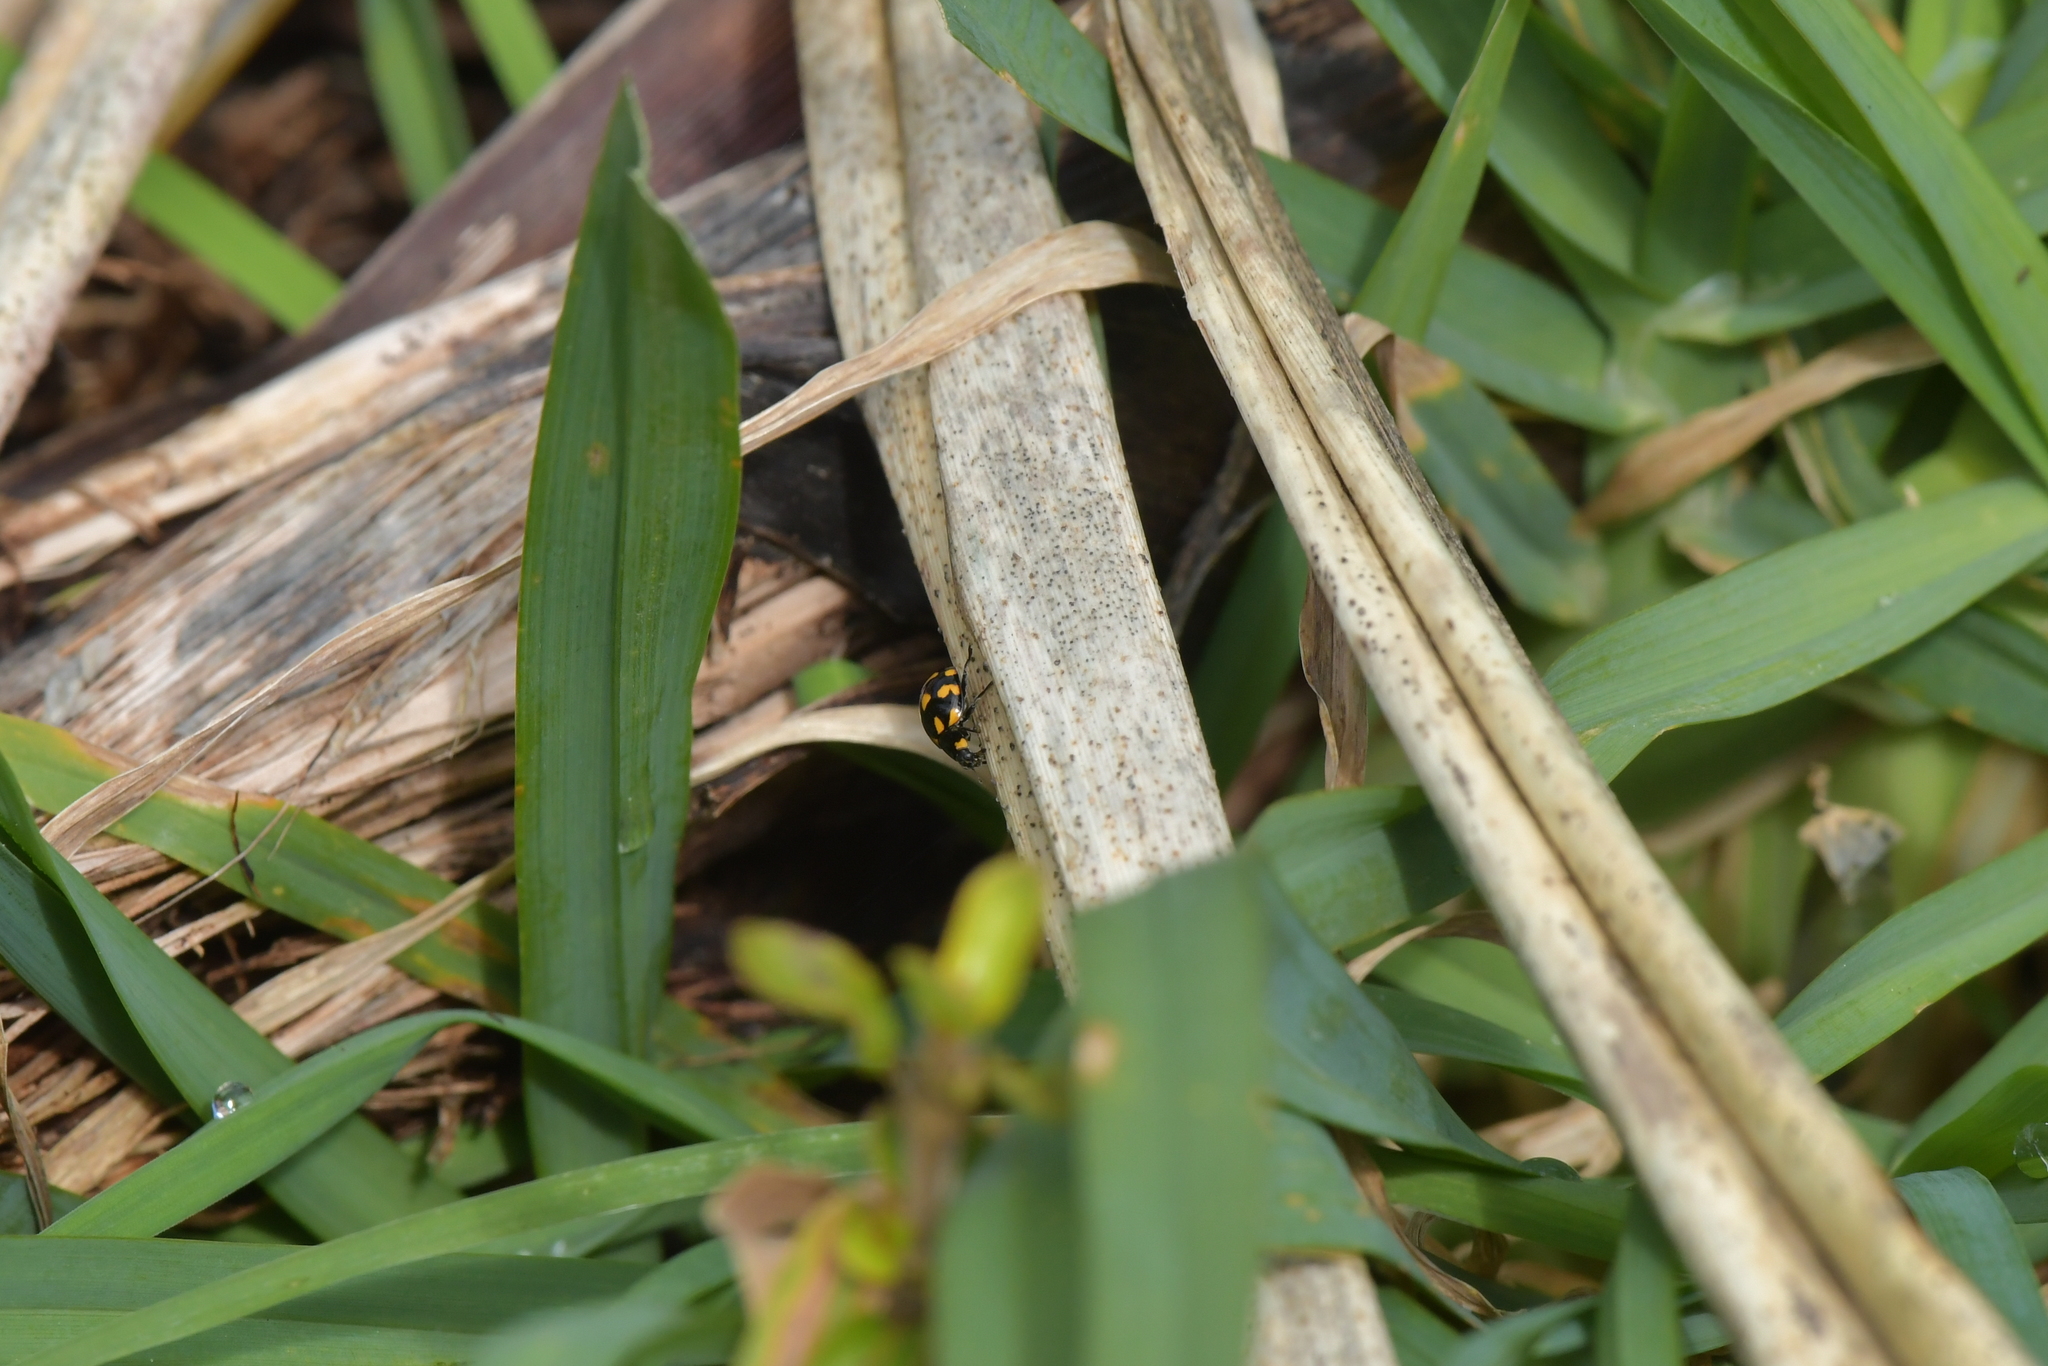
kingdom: Animalia
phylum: Arthropoda
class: Insecta
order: Coleoptera
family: Coccinellidae
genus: Coccinella
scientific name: Coccinella leonina
